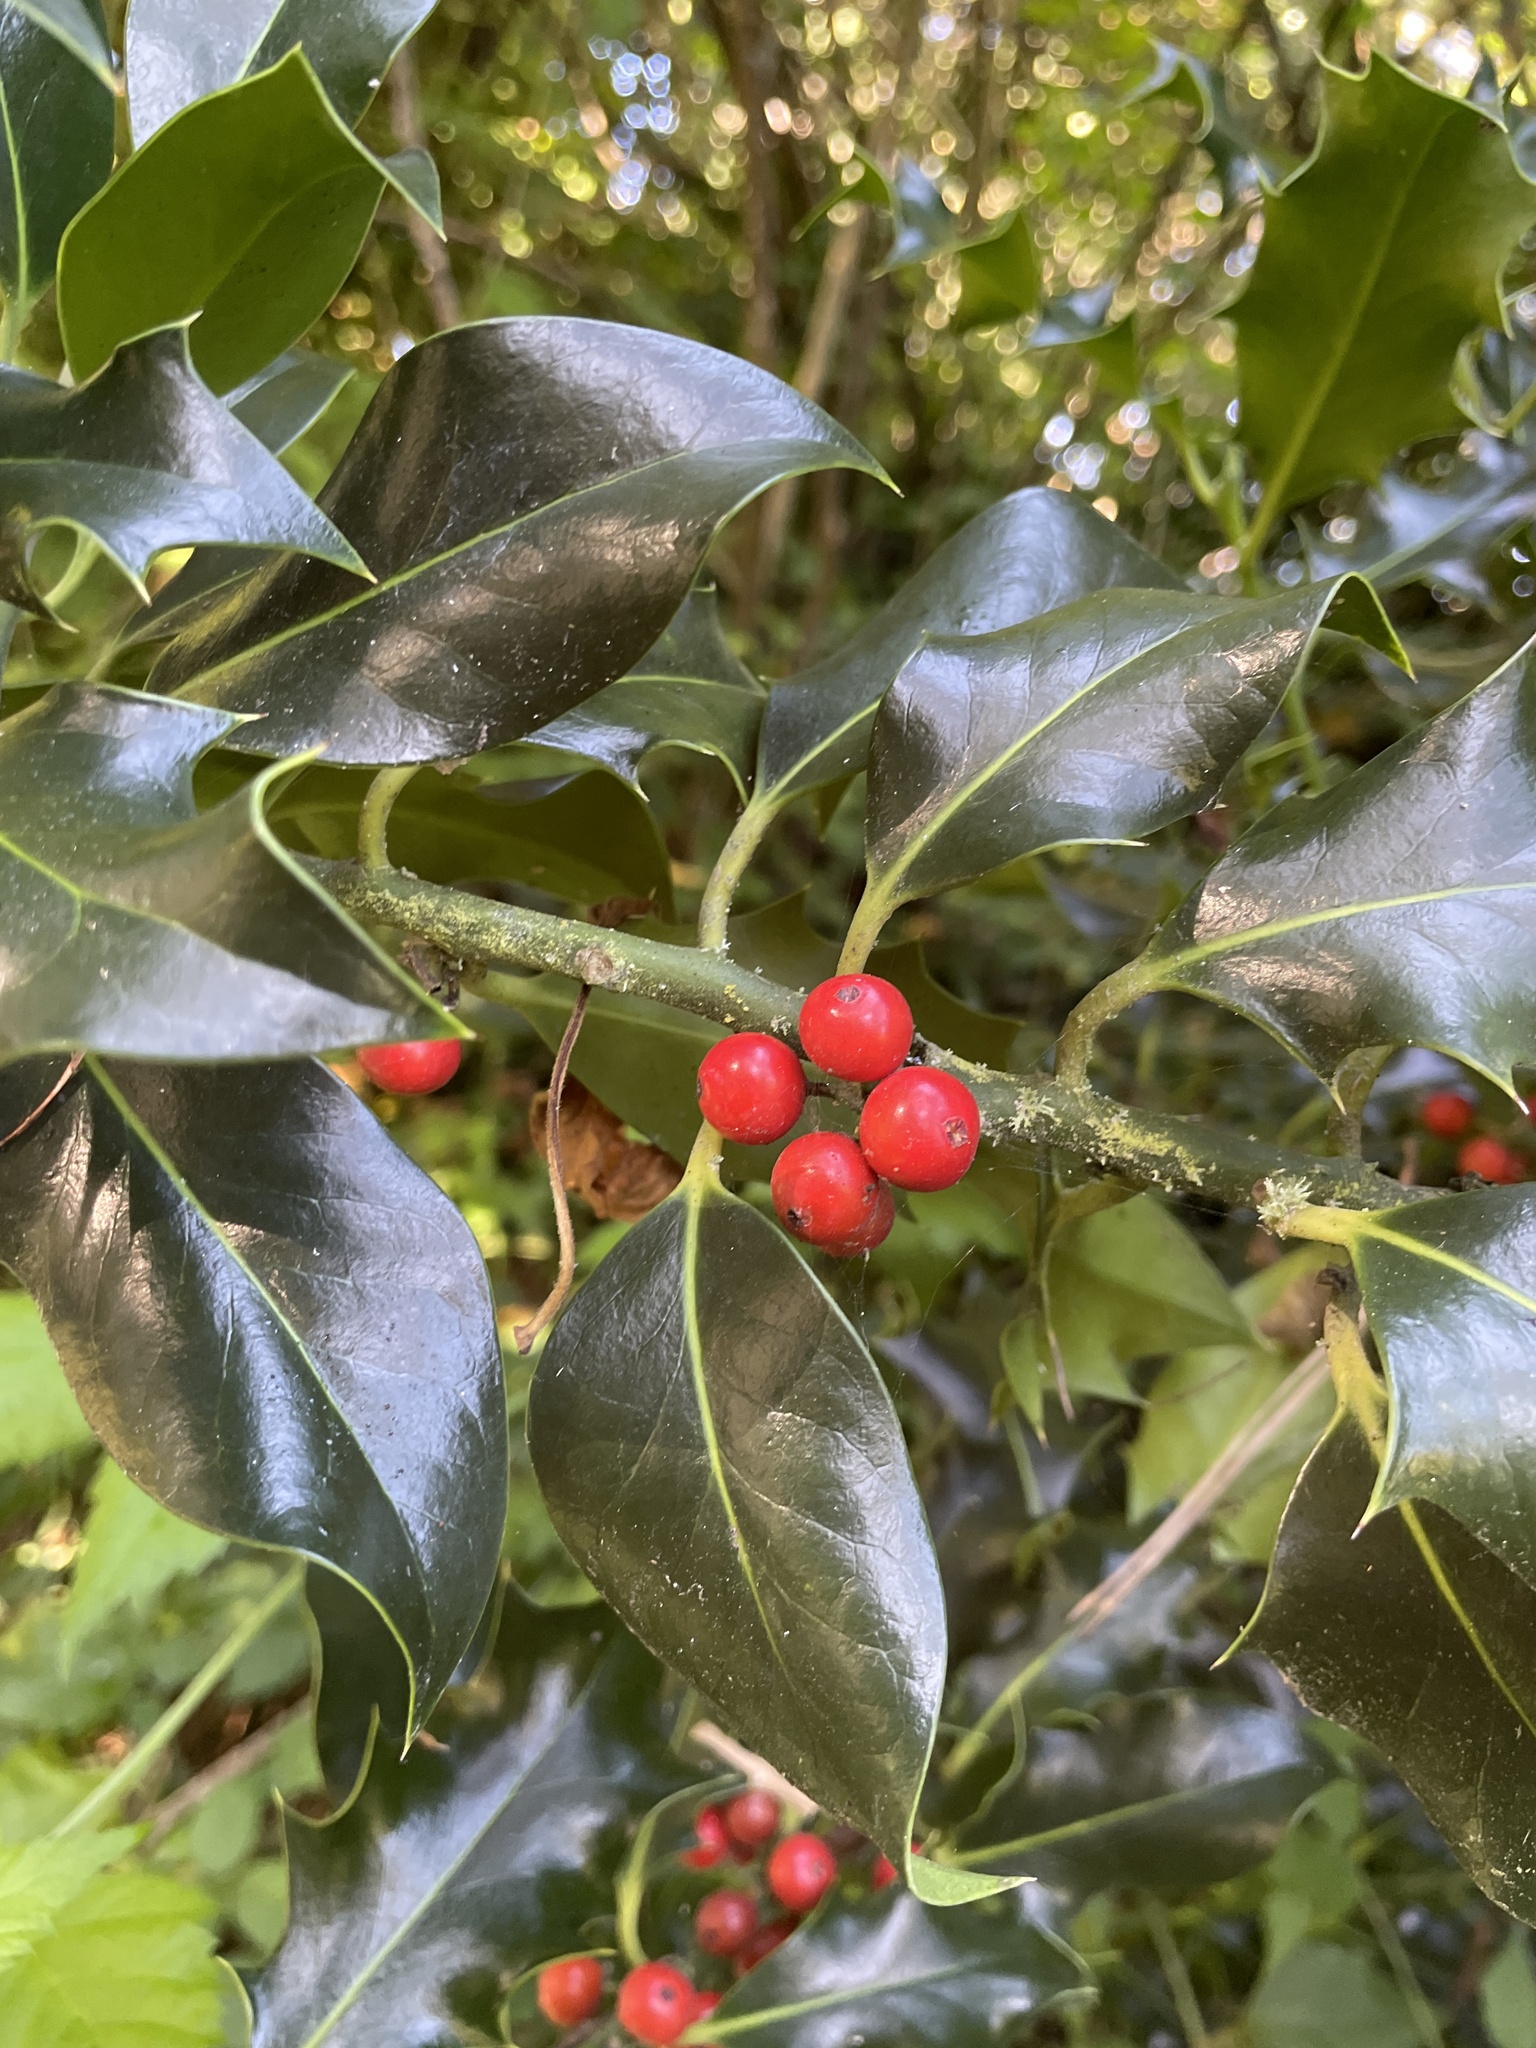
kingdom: Plantae
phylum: Tracheophyta
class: Magnoliopsida
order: Aquifoliales
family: Aquifoliaceae
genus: Ilex
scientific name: Ilex aquifolium
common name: English holly
